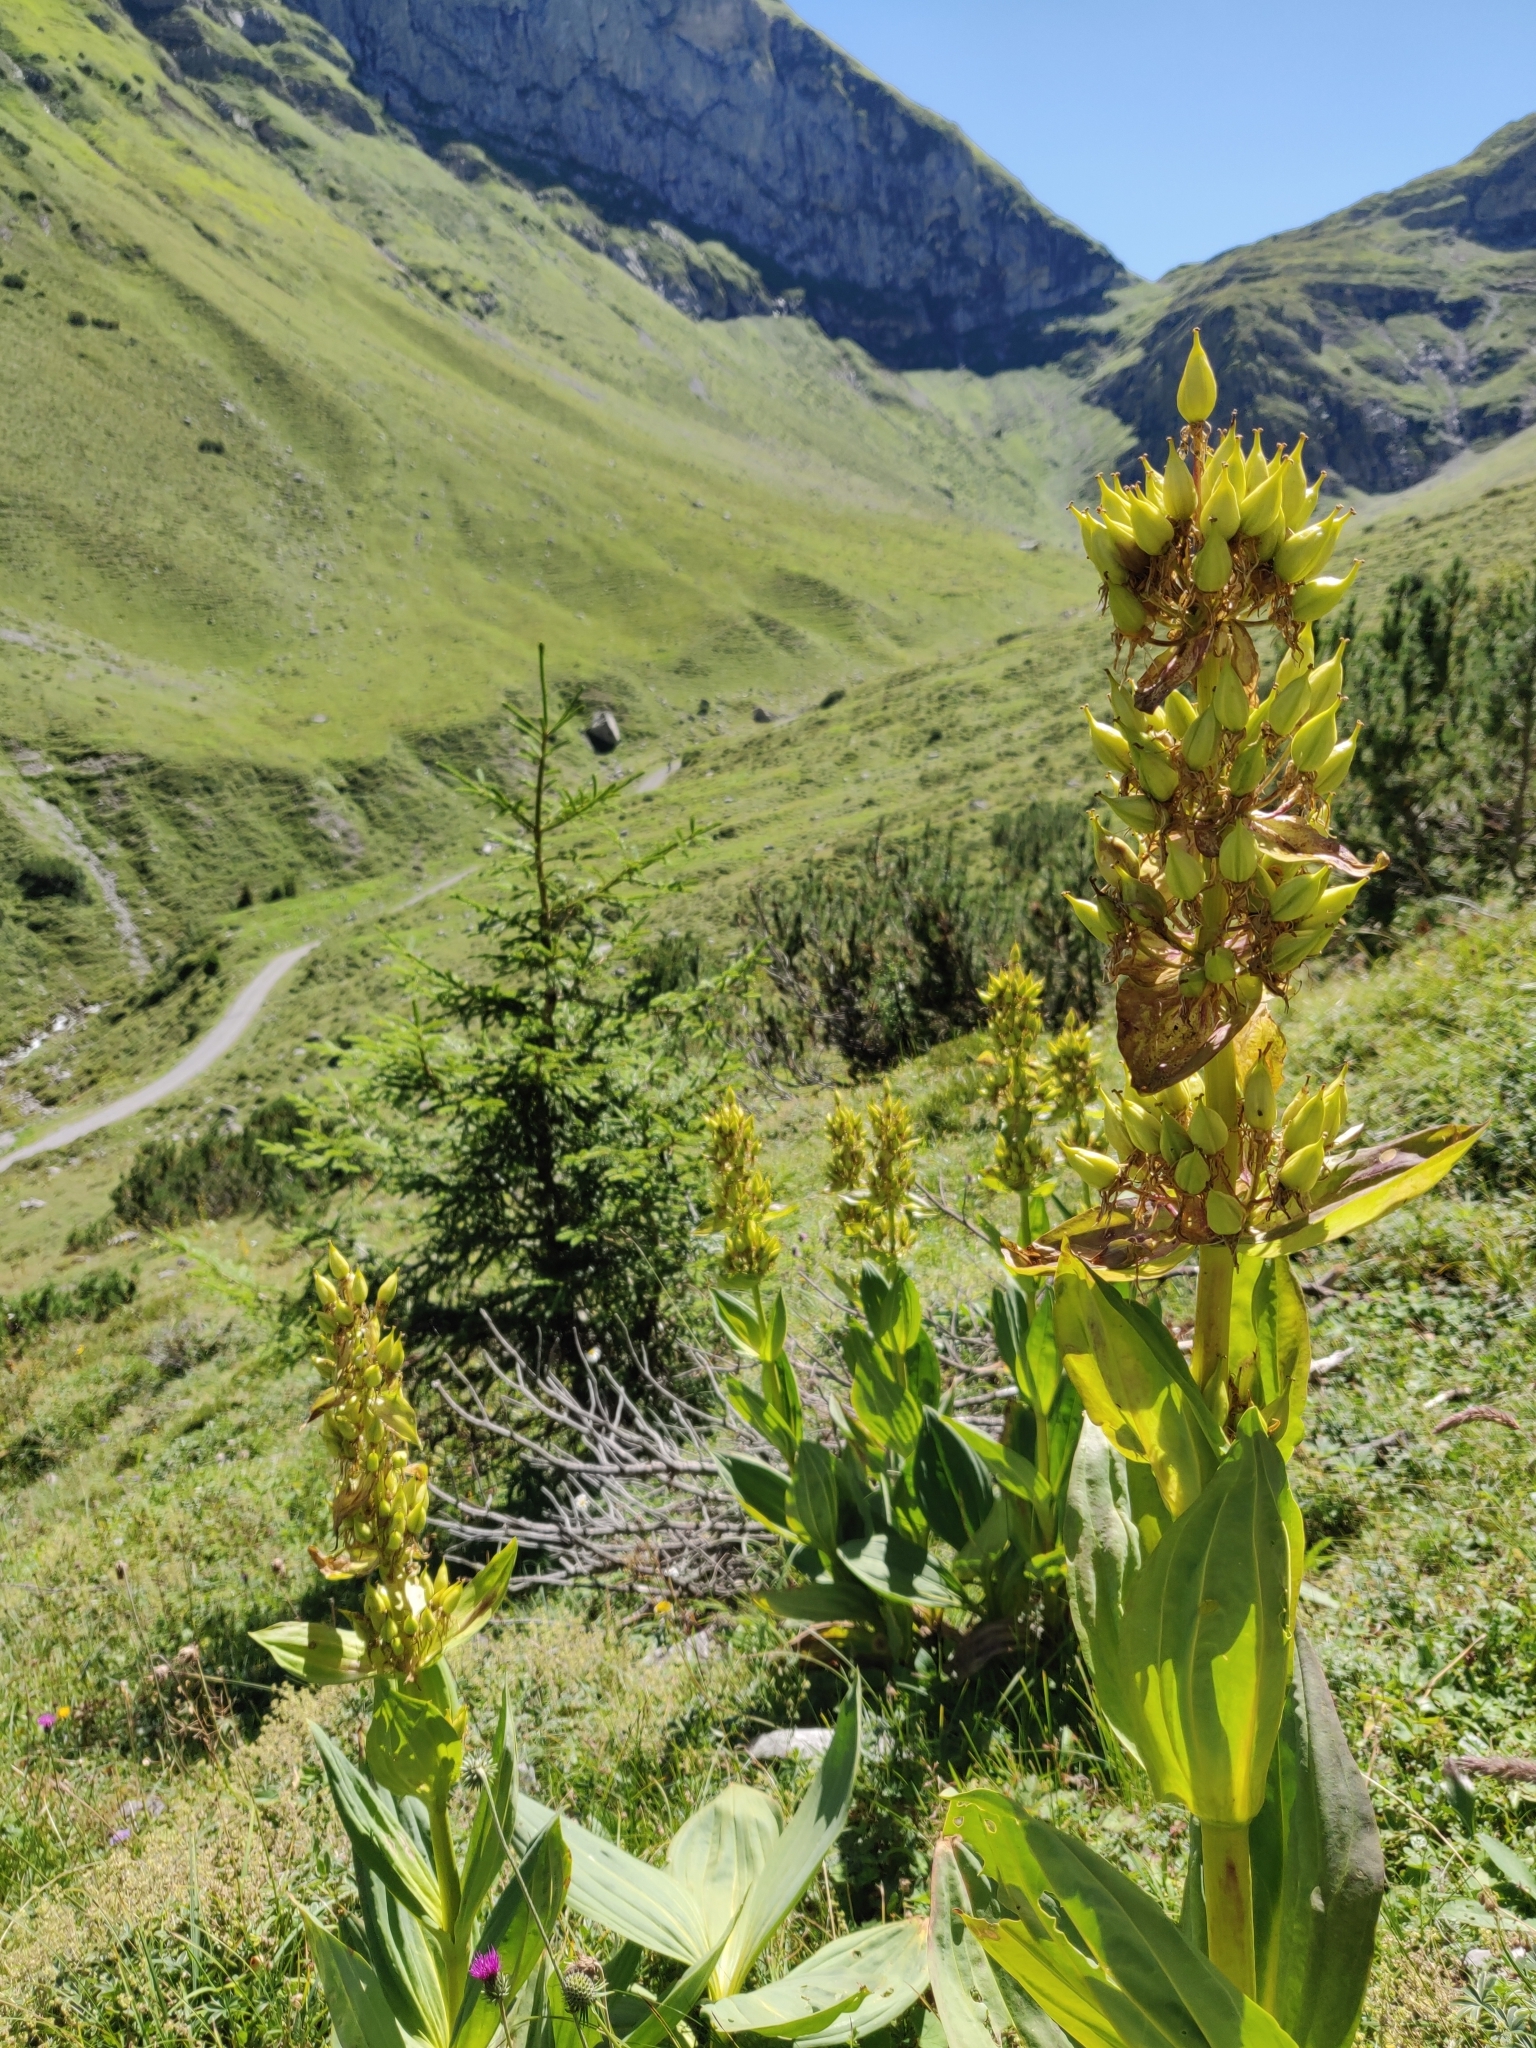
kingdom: Plantae
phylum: Tracheophyta
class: Magnoliopsida
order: Gentianales
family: Gentianaceae
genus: Gentiana
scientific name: Gentiana lutea
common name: Great yellow gentian
